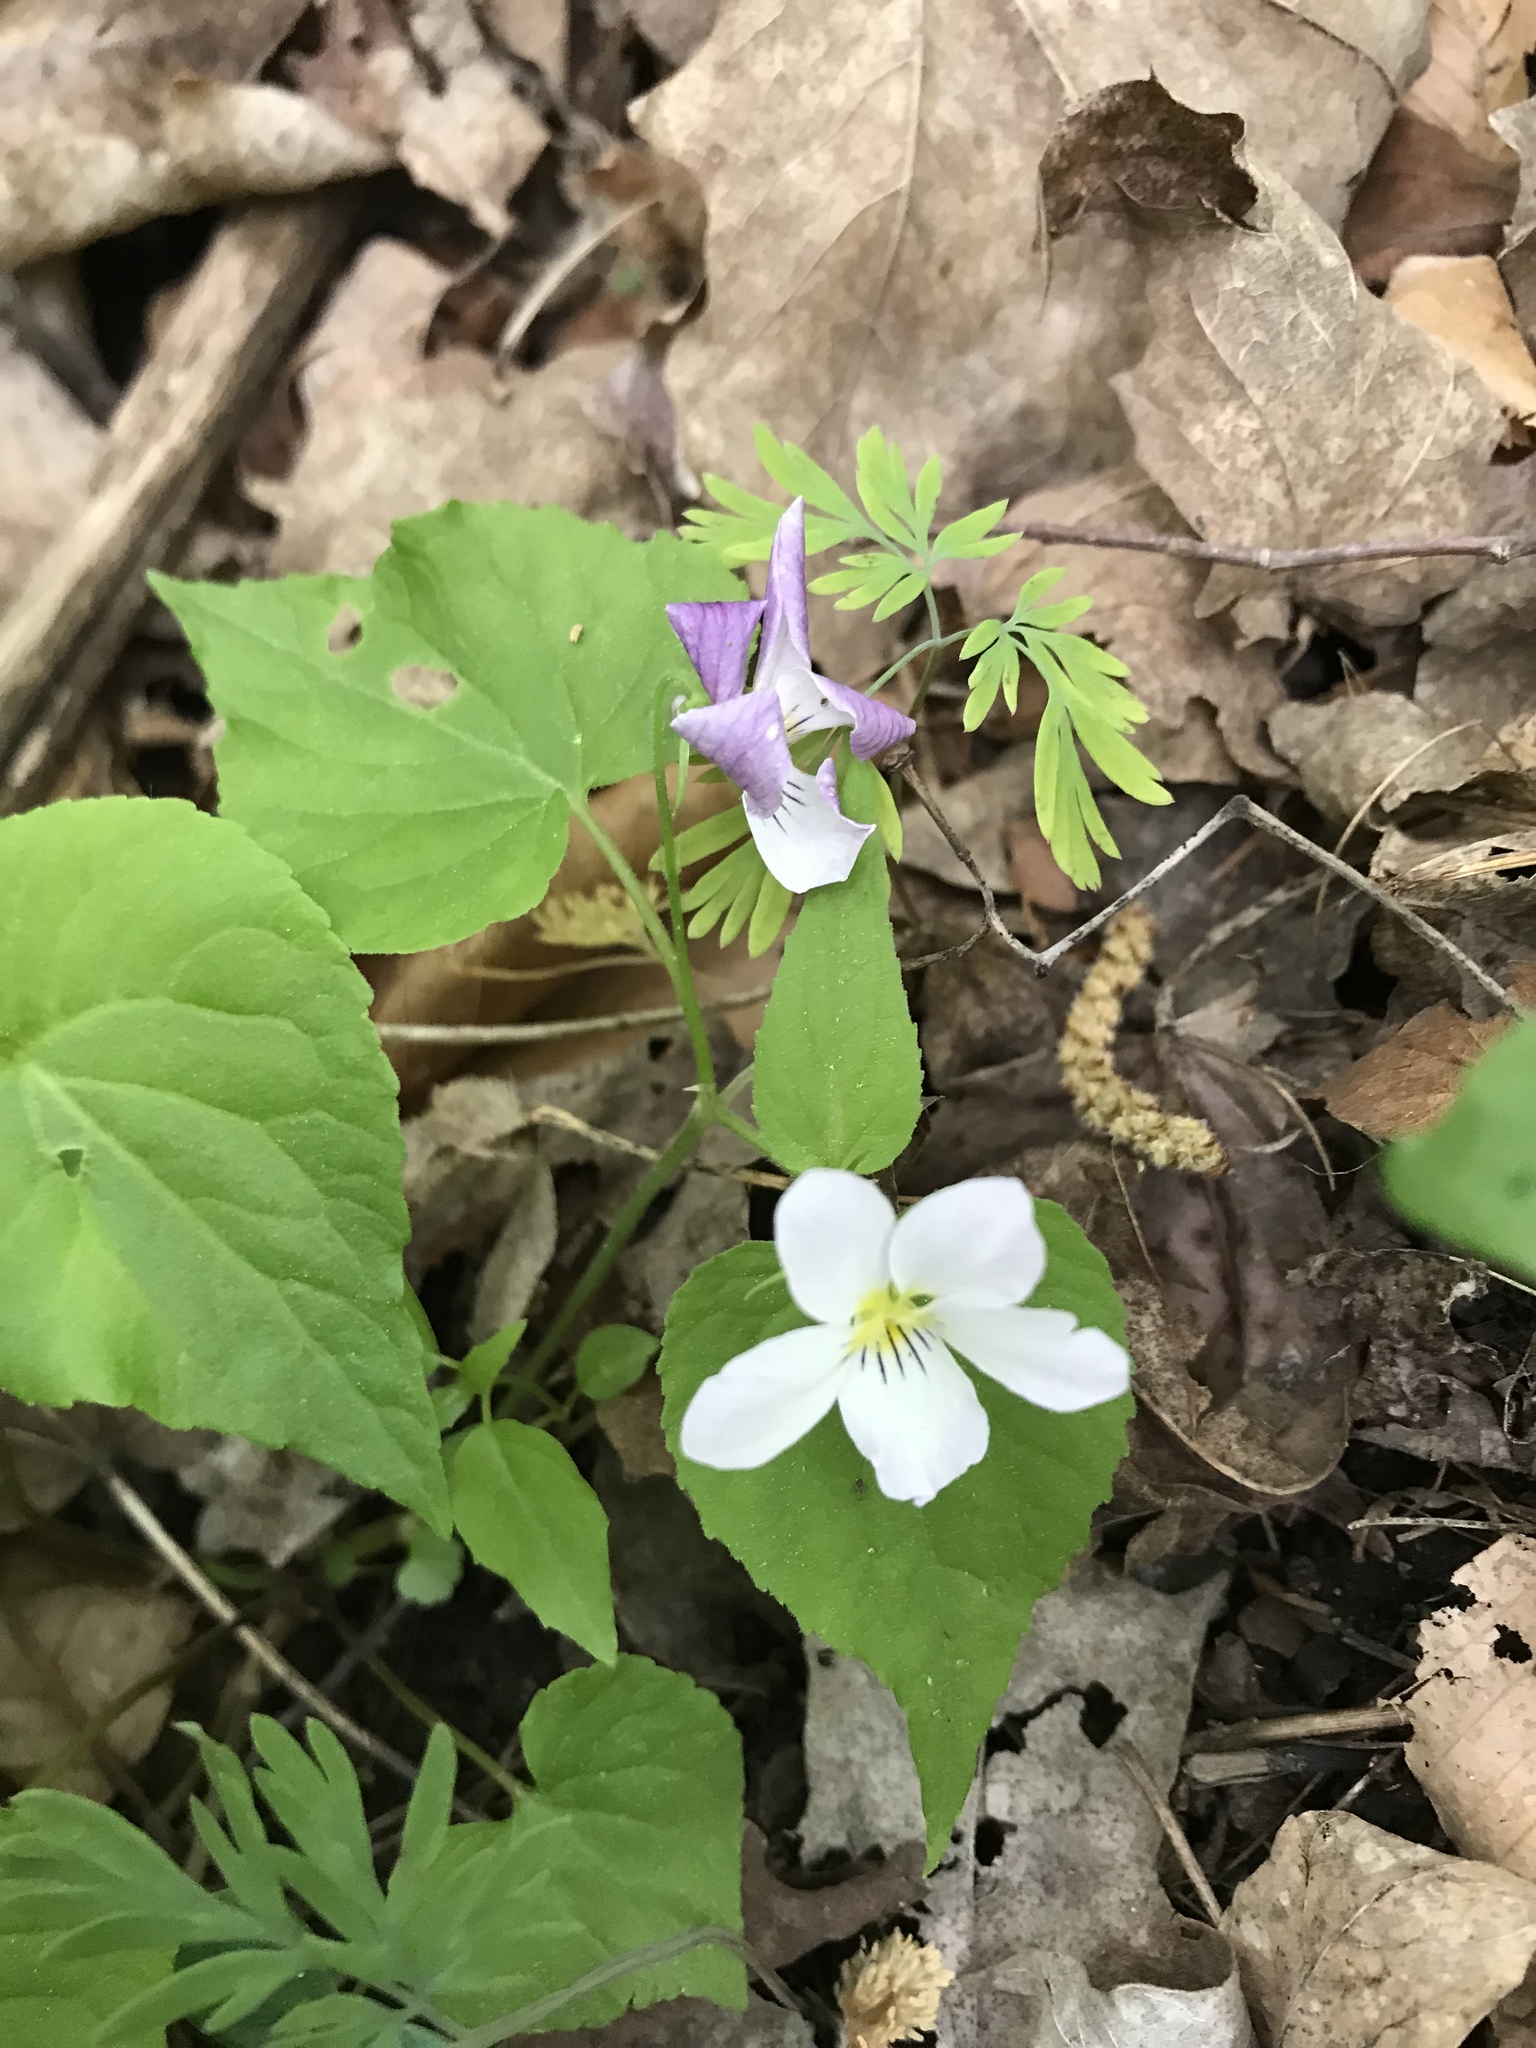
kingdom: Plantae
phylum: Tracheophyta
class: Magnoliopsida
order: Malpighiales
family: Violaceae
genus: Viola
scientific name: Viola canadensis
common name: Canada violet
